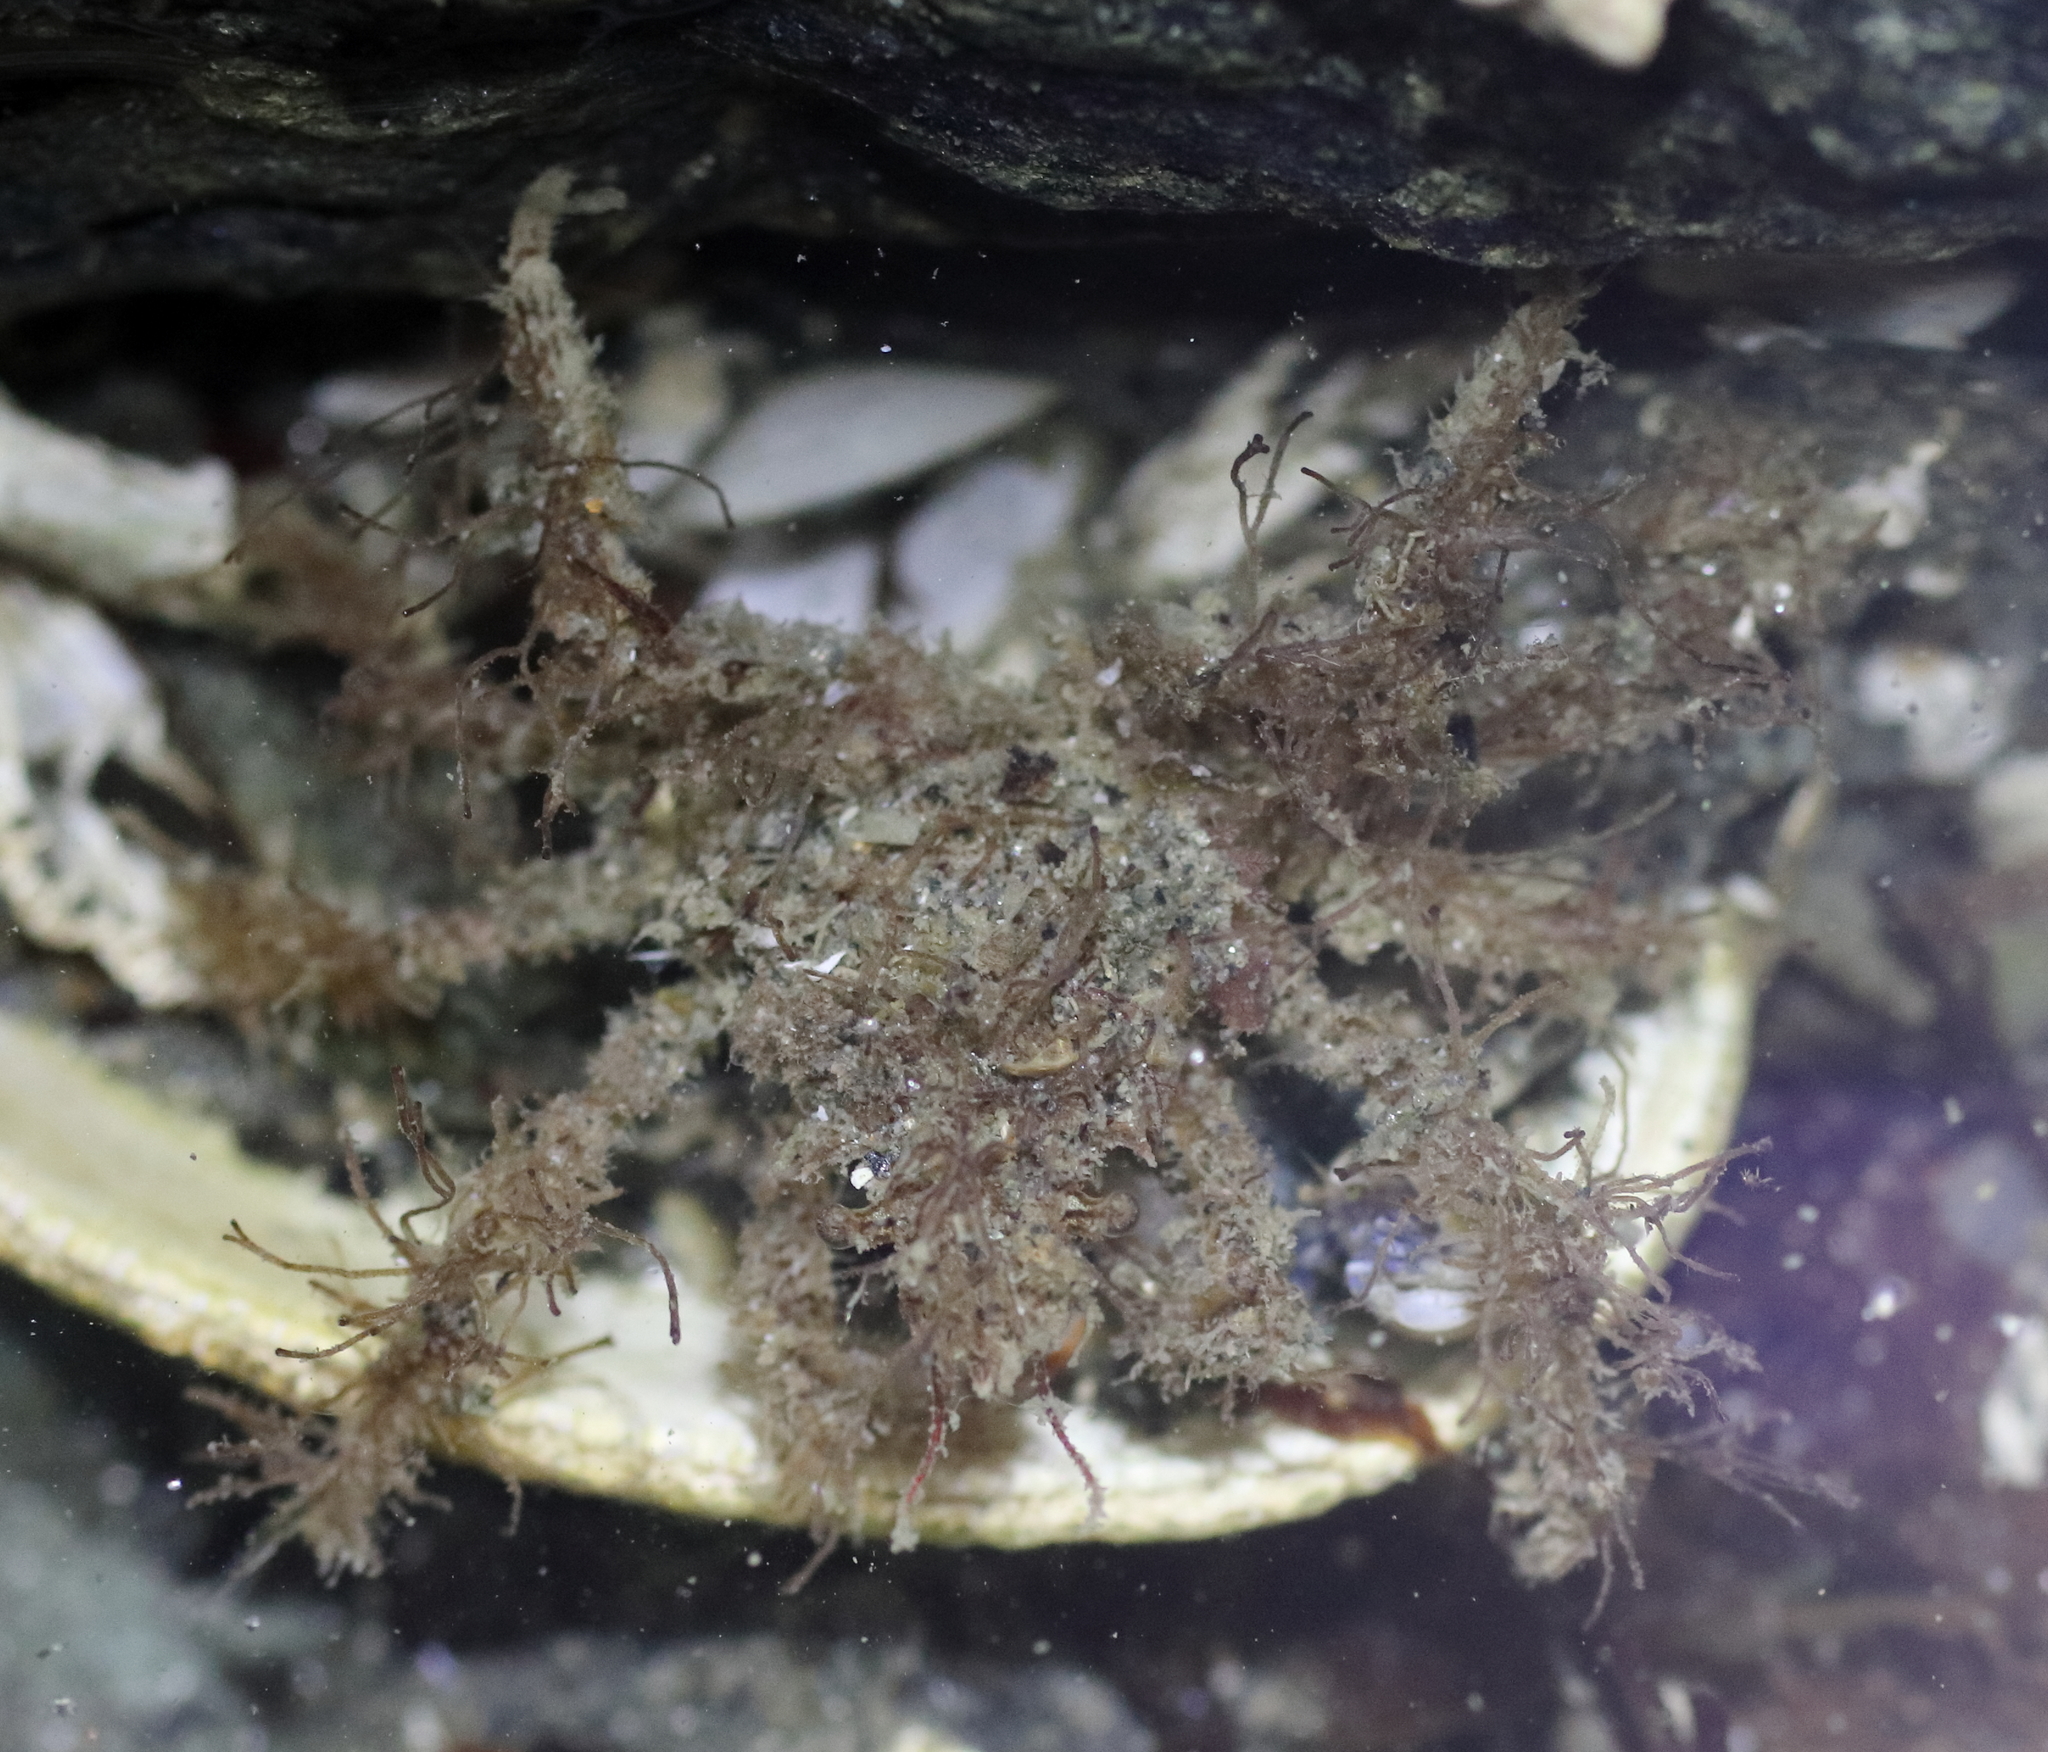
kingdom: Animalia
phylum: Arthropoda
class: Malacostraca
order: Decapoda
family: Oregoniidae
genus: Oregonia
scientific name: Oregonia gracilis
